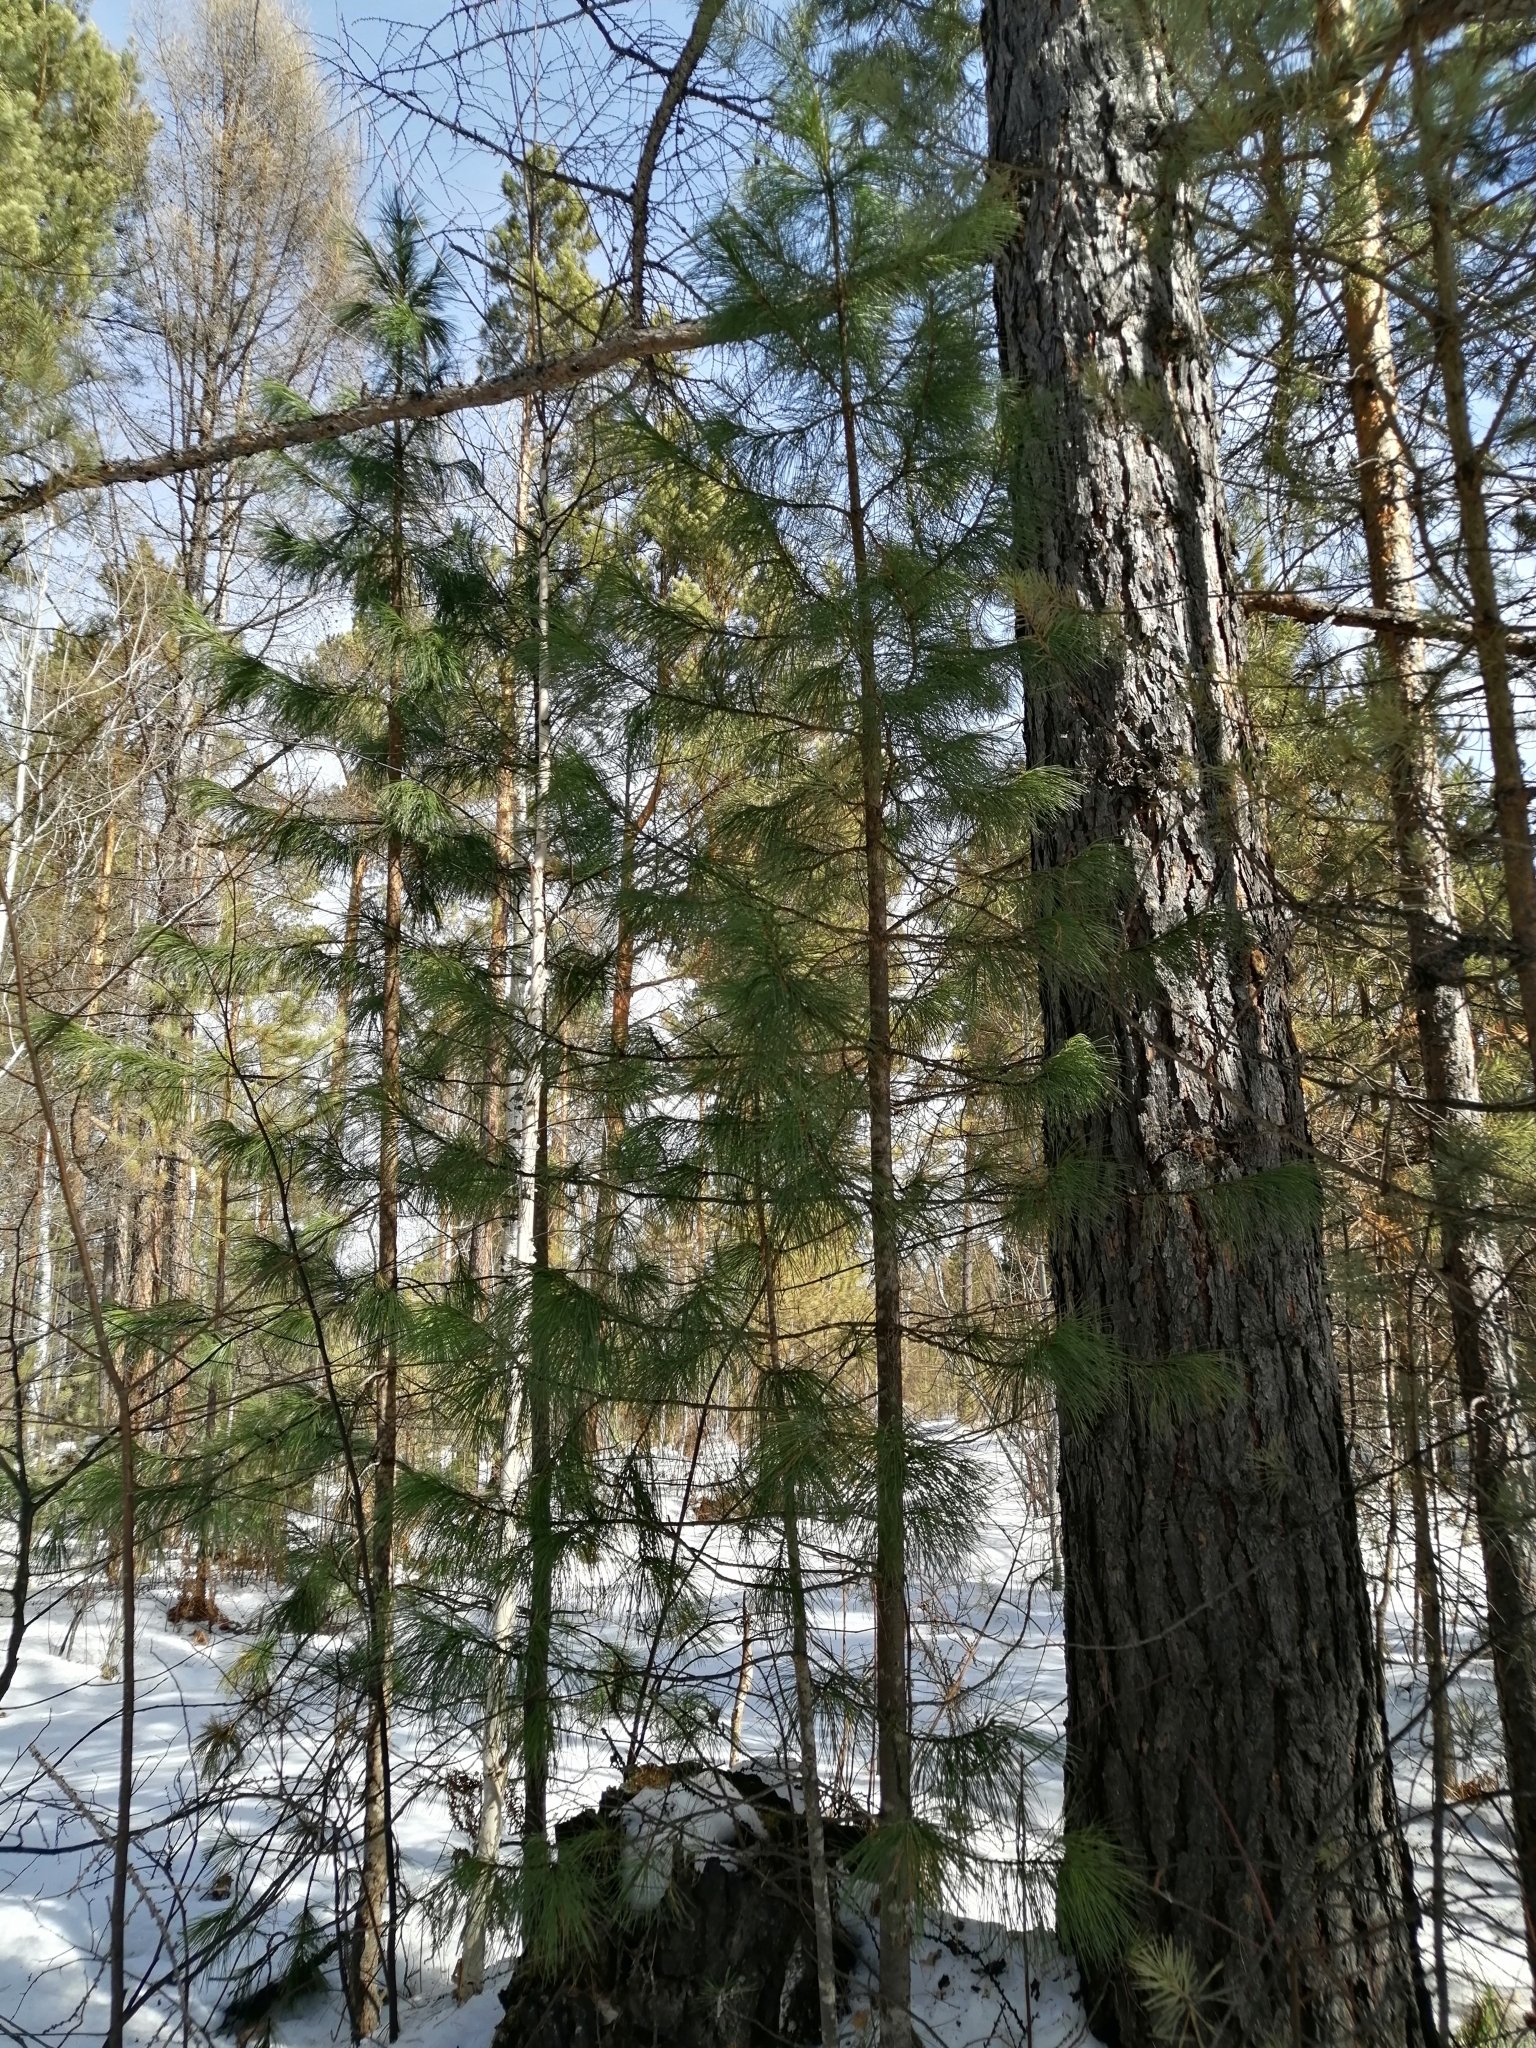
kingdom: Plantae
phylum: Tracheophyta
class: Pinopsida
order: Pinales
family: Pinaceae
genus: Pinus
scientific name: Pinus sibirica
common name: Siberian pine
